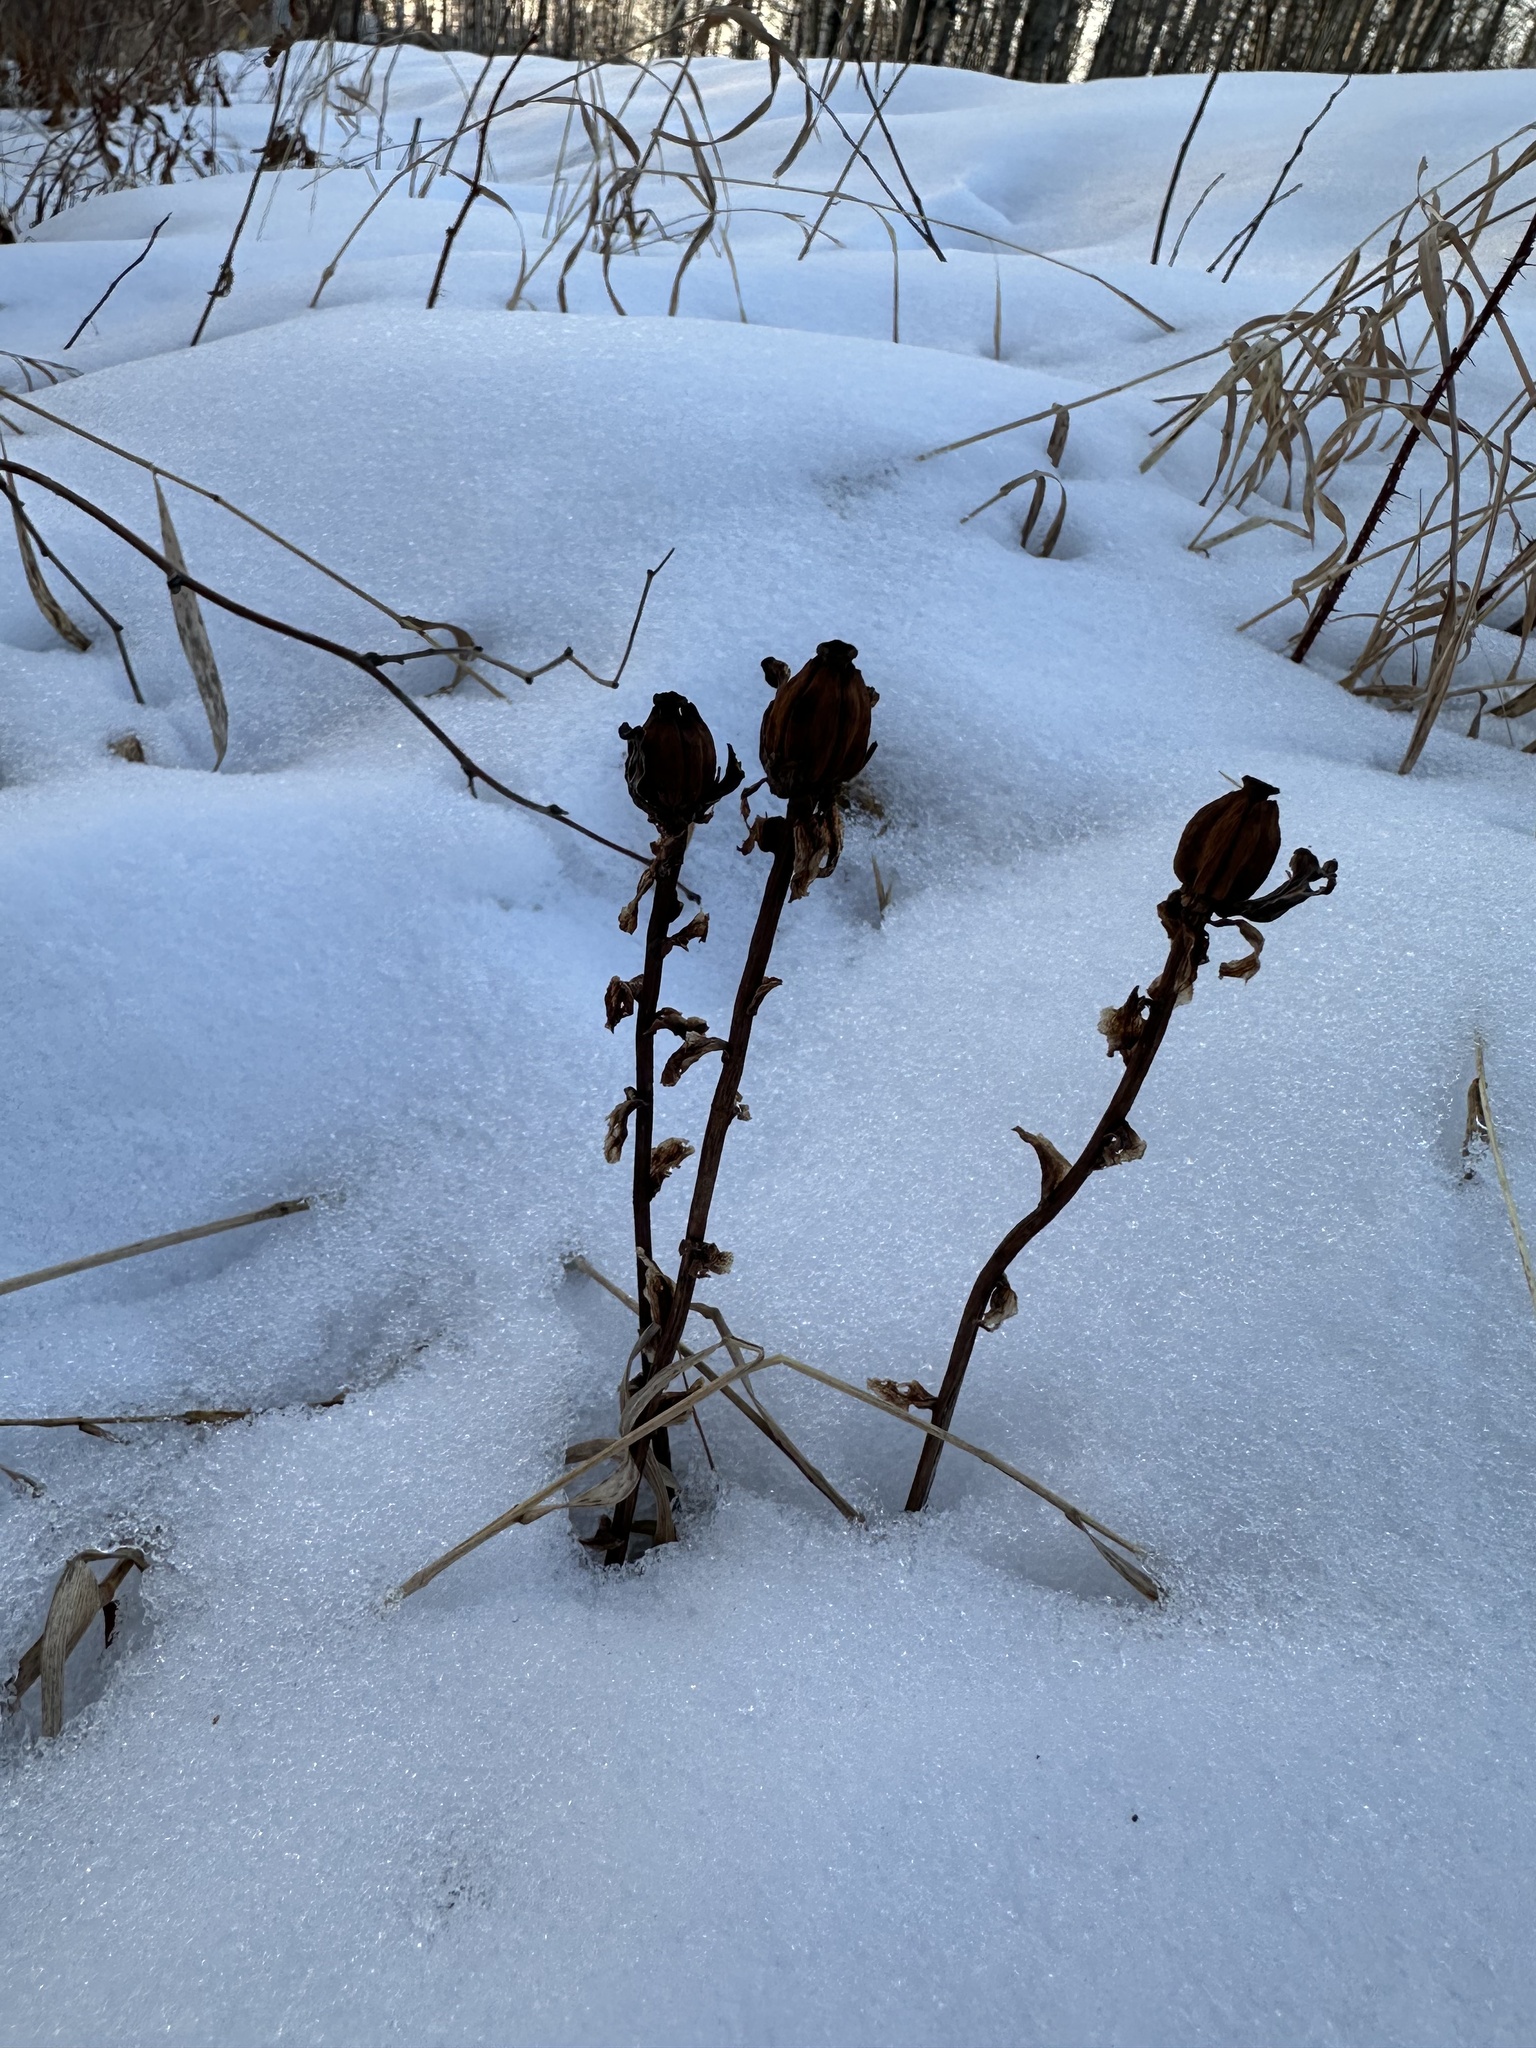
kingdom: Plantae
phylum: Tracheophyta
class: Magnoliopsida
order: Ericales
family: Ericaceae
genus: Monotropa
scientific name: Monotropa uniflora
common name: Convulsion root
